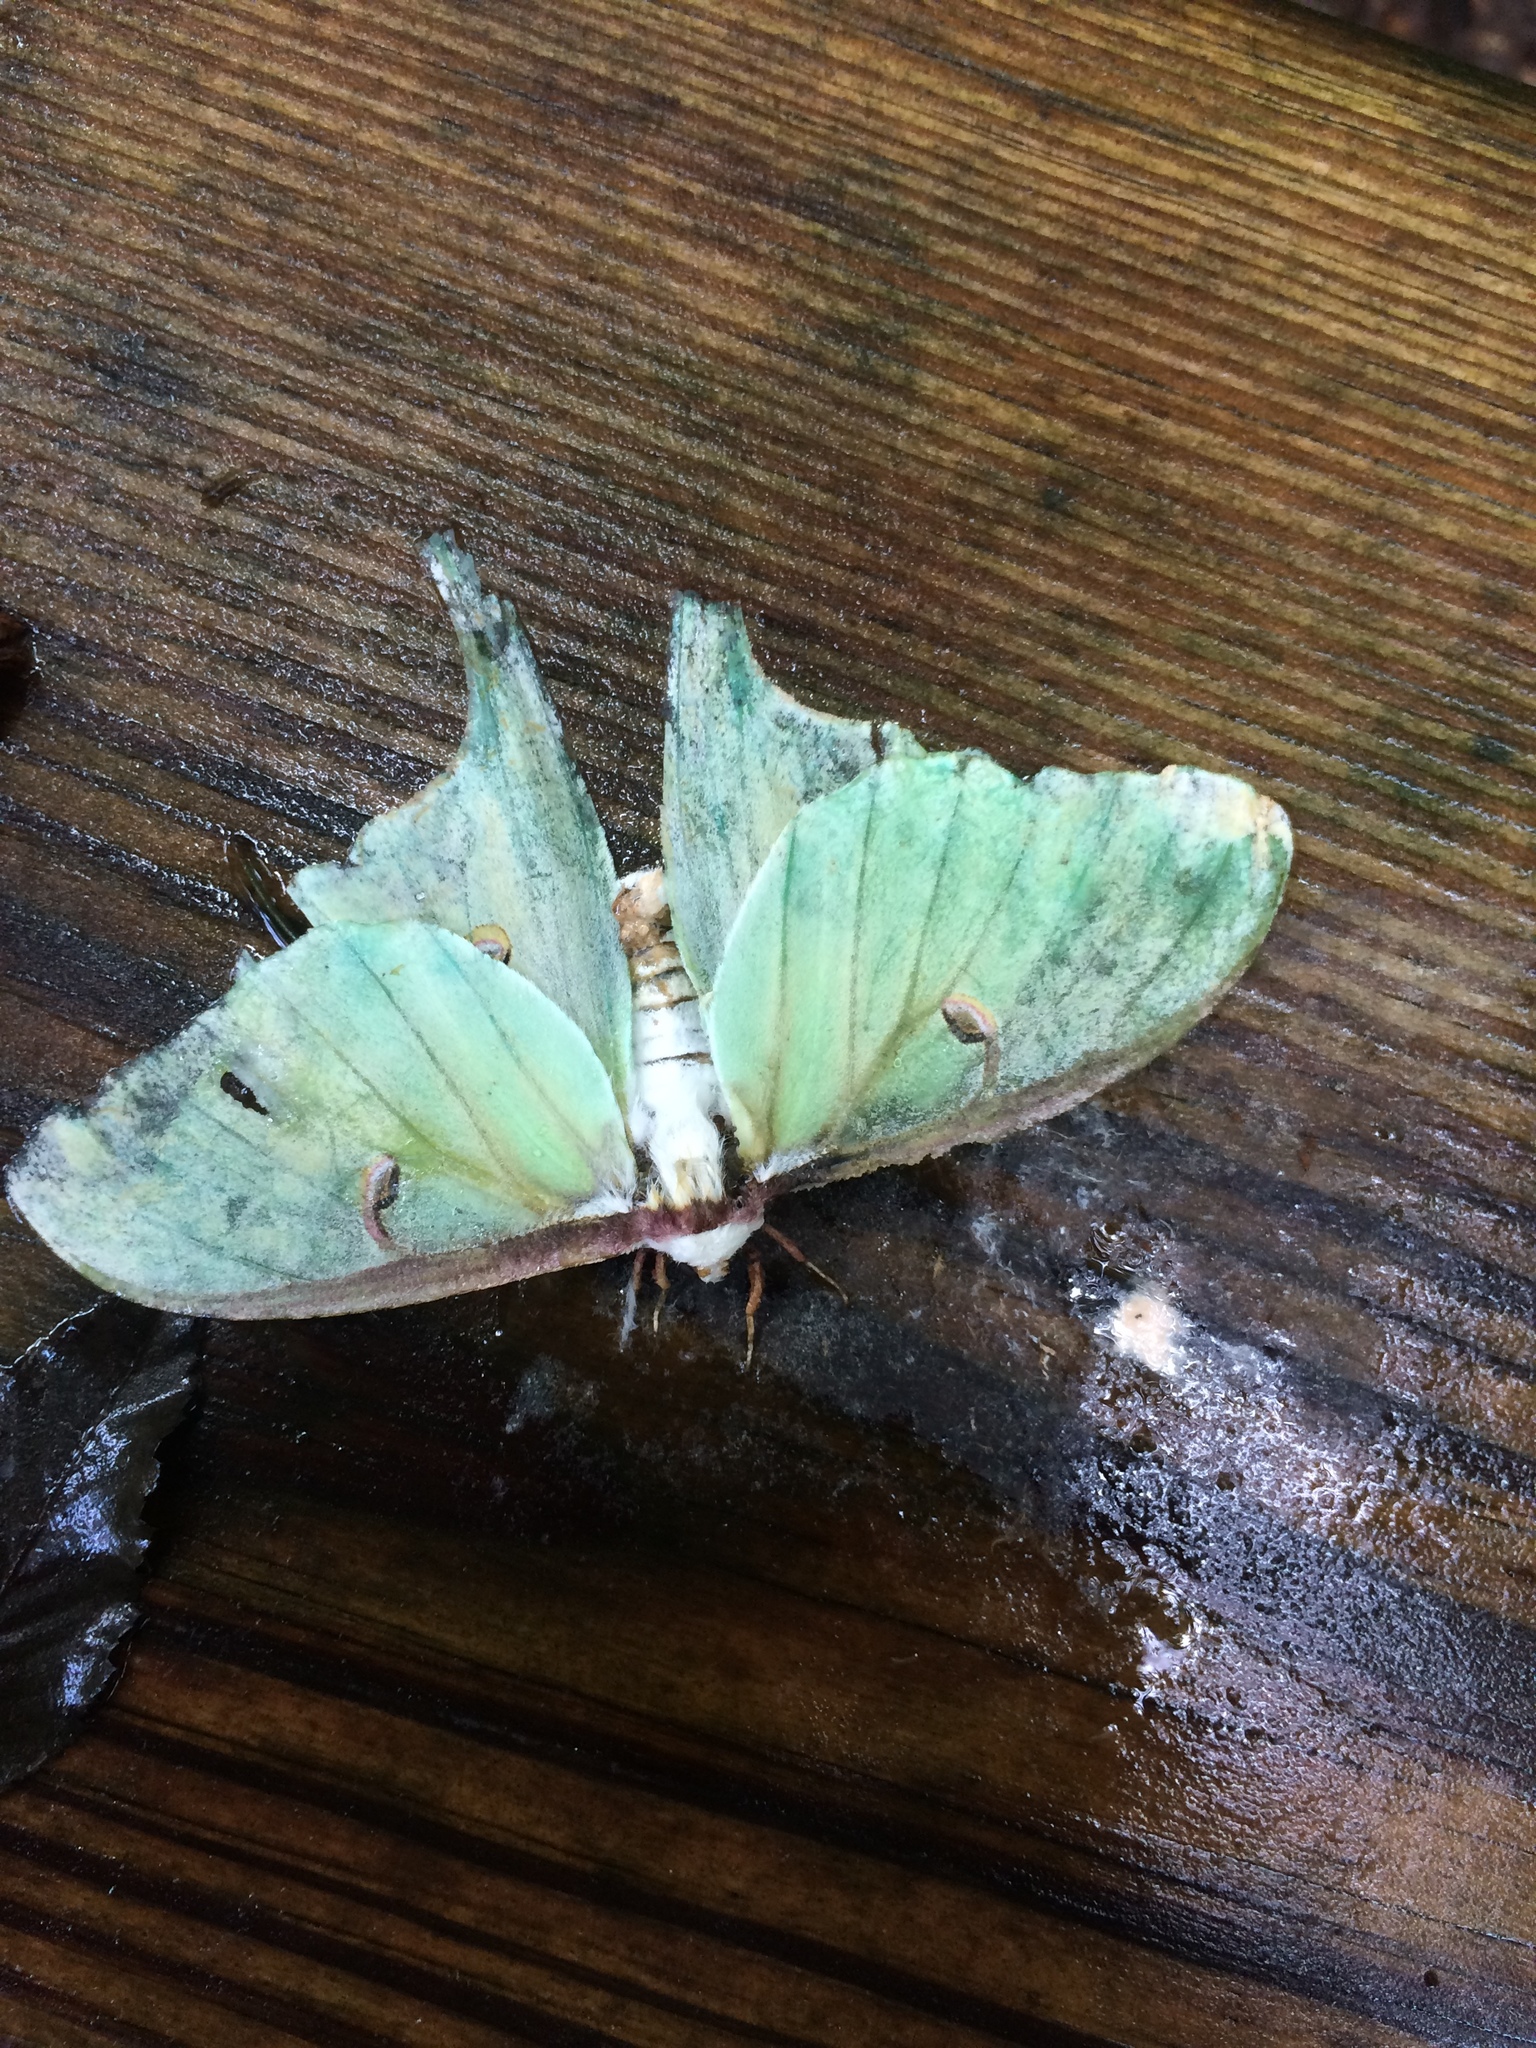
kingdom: Animalia
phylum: Arthropoda
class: Insecta
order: Lepidoptera
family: Saturniidae
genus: Actias
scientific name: Actias luna
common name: Luna moth
